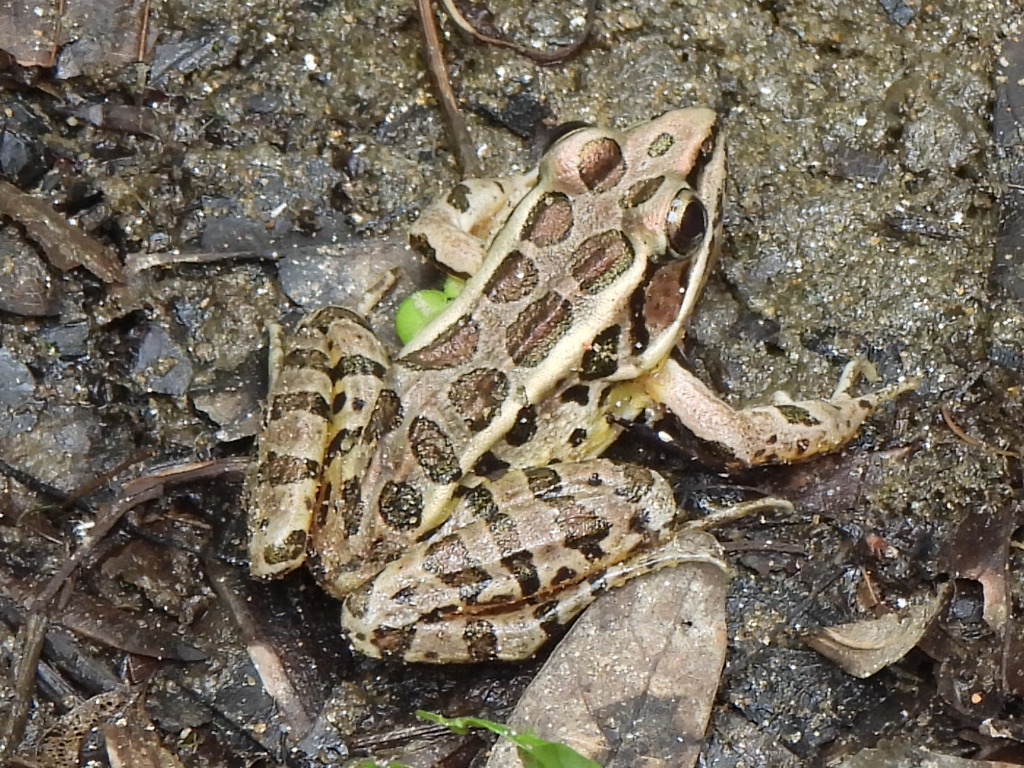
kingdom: Animalia
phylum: Chordata
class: Amphibia
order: Anura
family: Ranidae
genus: Lithobates
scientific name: Lithobates palustris
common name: Pickerel frog
